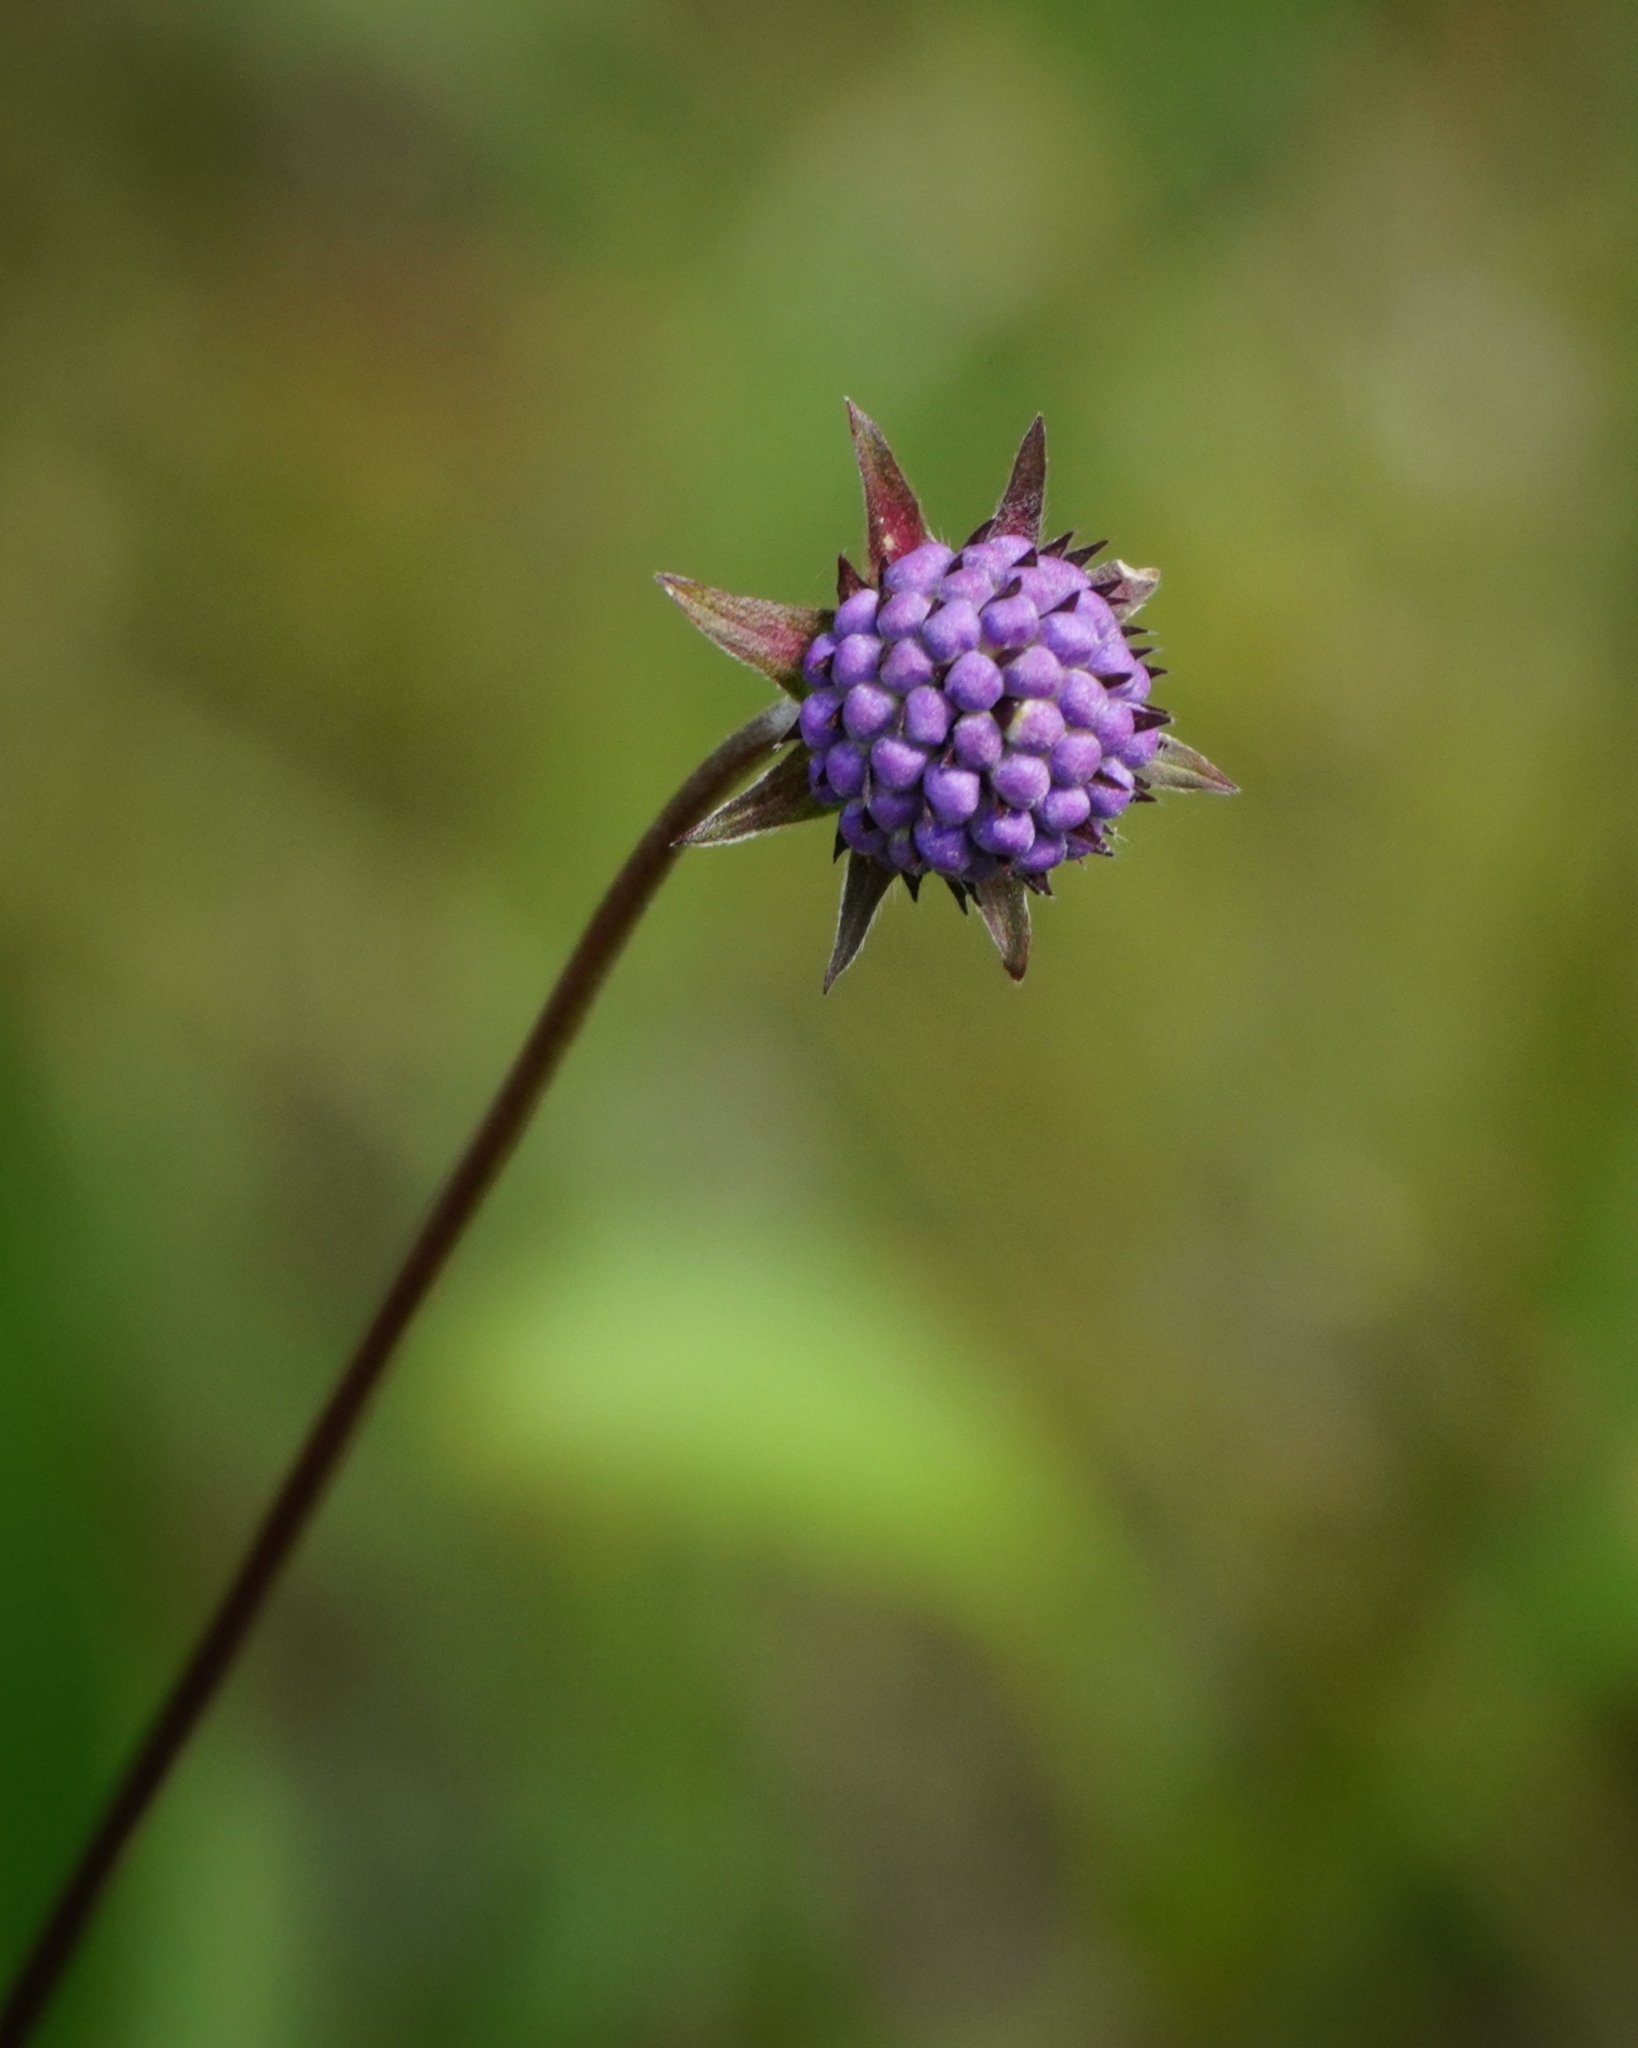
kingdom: Plantae
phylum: Tracheophyta
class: Magnoliopsida
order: Dipsacales
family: Caprifoliaceae
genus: Succisa
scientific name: Succisa pratensis
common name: Devil's-bit
